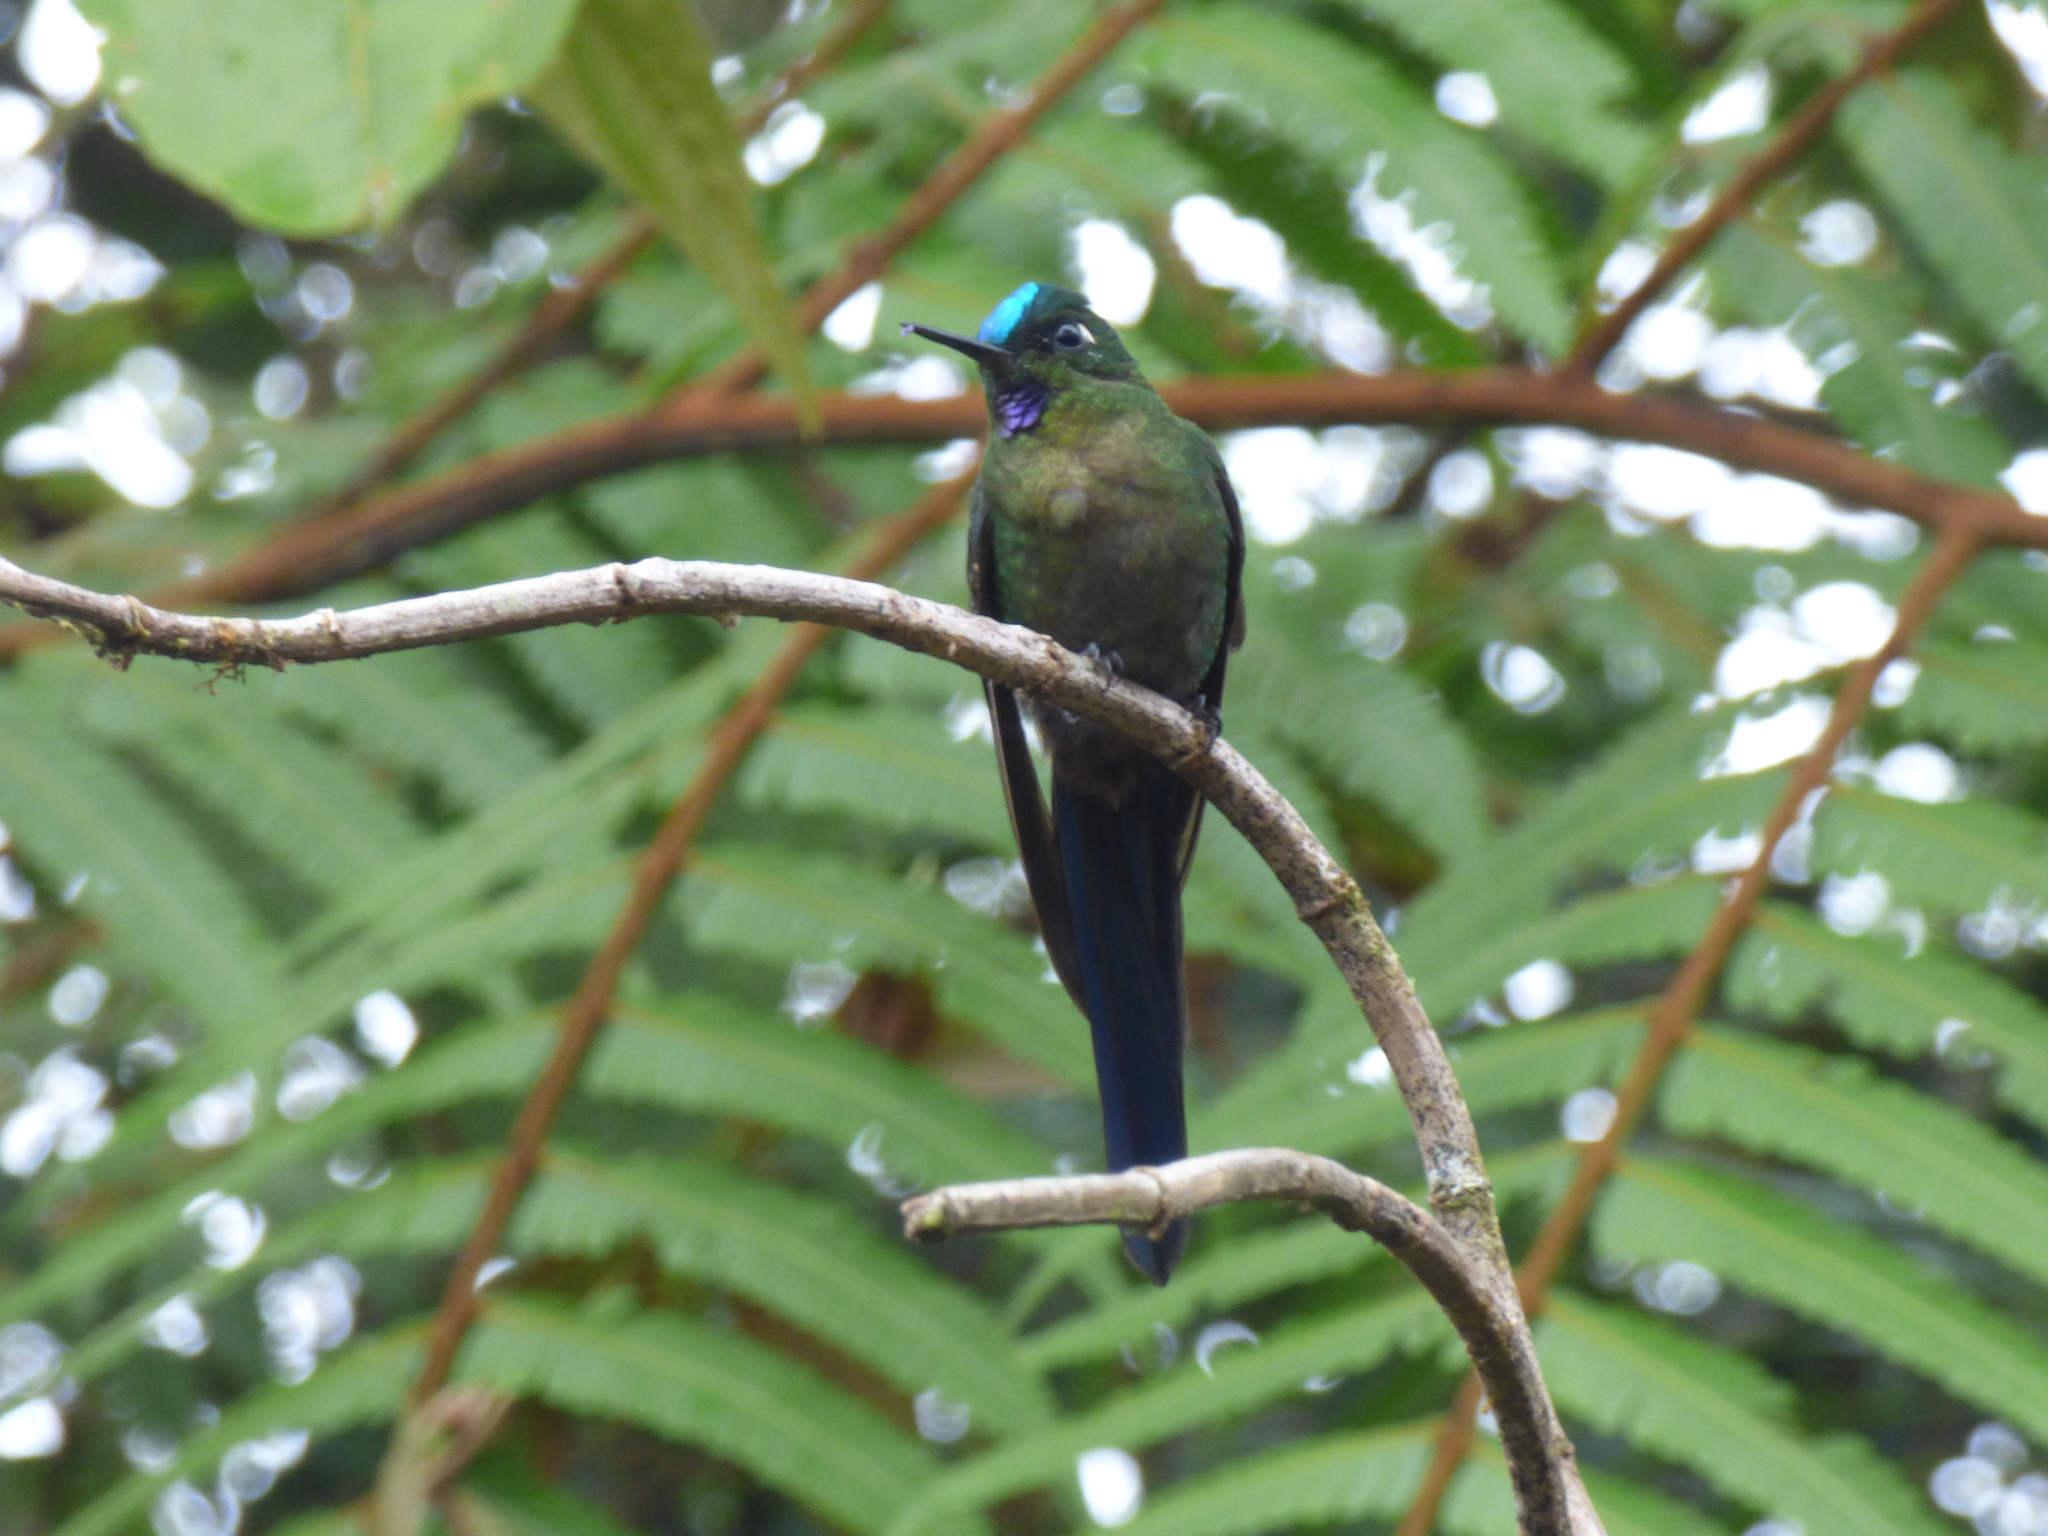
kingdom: Animalia
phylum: Chordata
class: Aves
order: Apodiformes
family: Trochilidae
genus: Aglaiocercus
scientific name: Aglaiocercus kingii
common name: Long-tailed sylph
